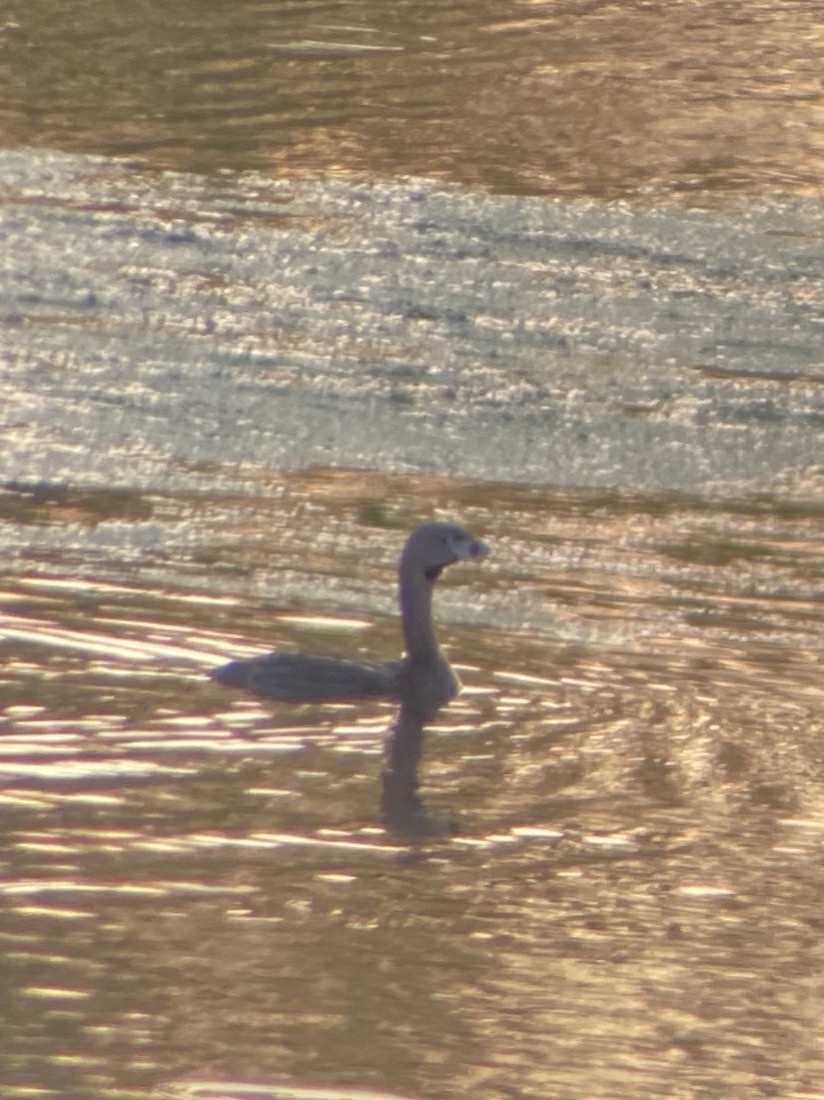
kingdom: Animalia
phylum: Chordata
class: Aves
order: Podicipediformes
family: Podicipedidae
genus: Podilymbus
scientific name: Podilymbus podiceps
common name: Pied-billed grebe
